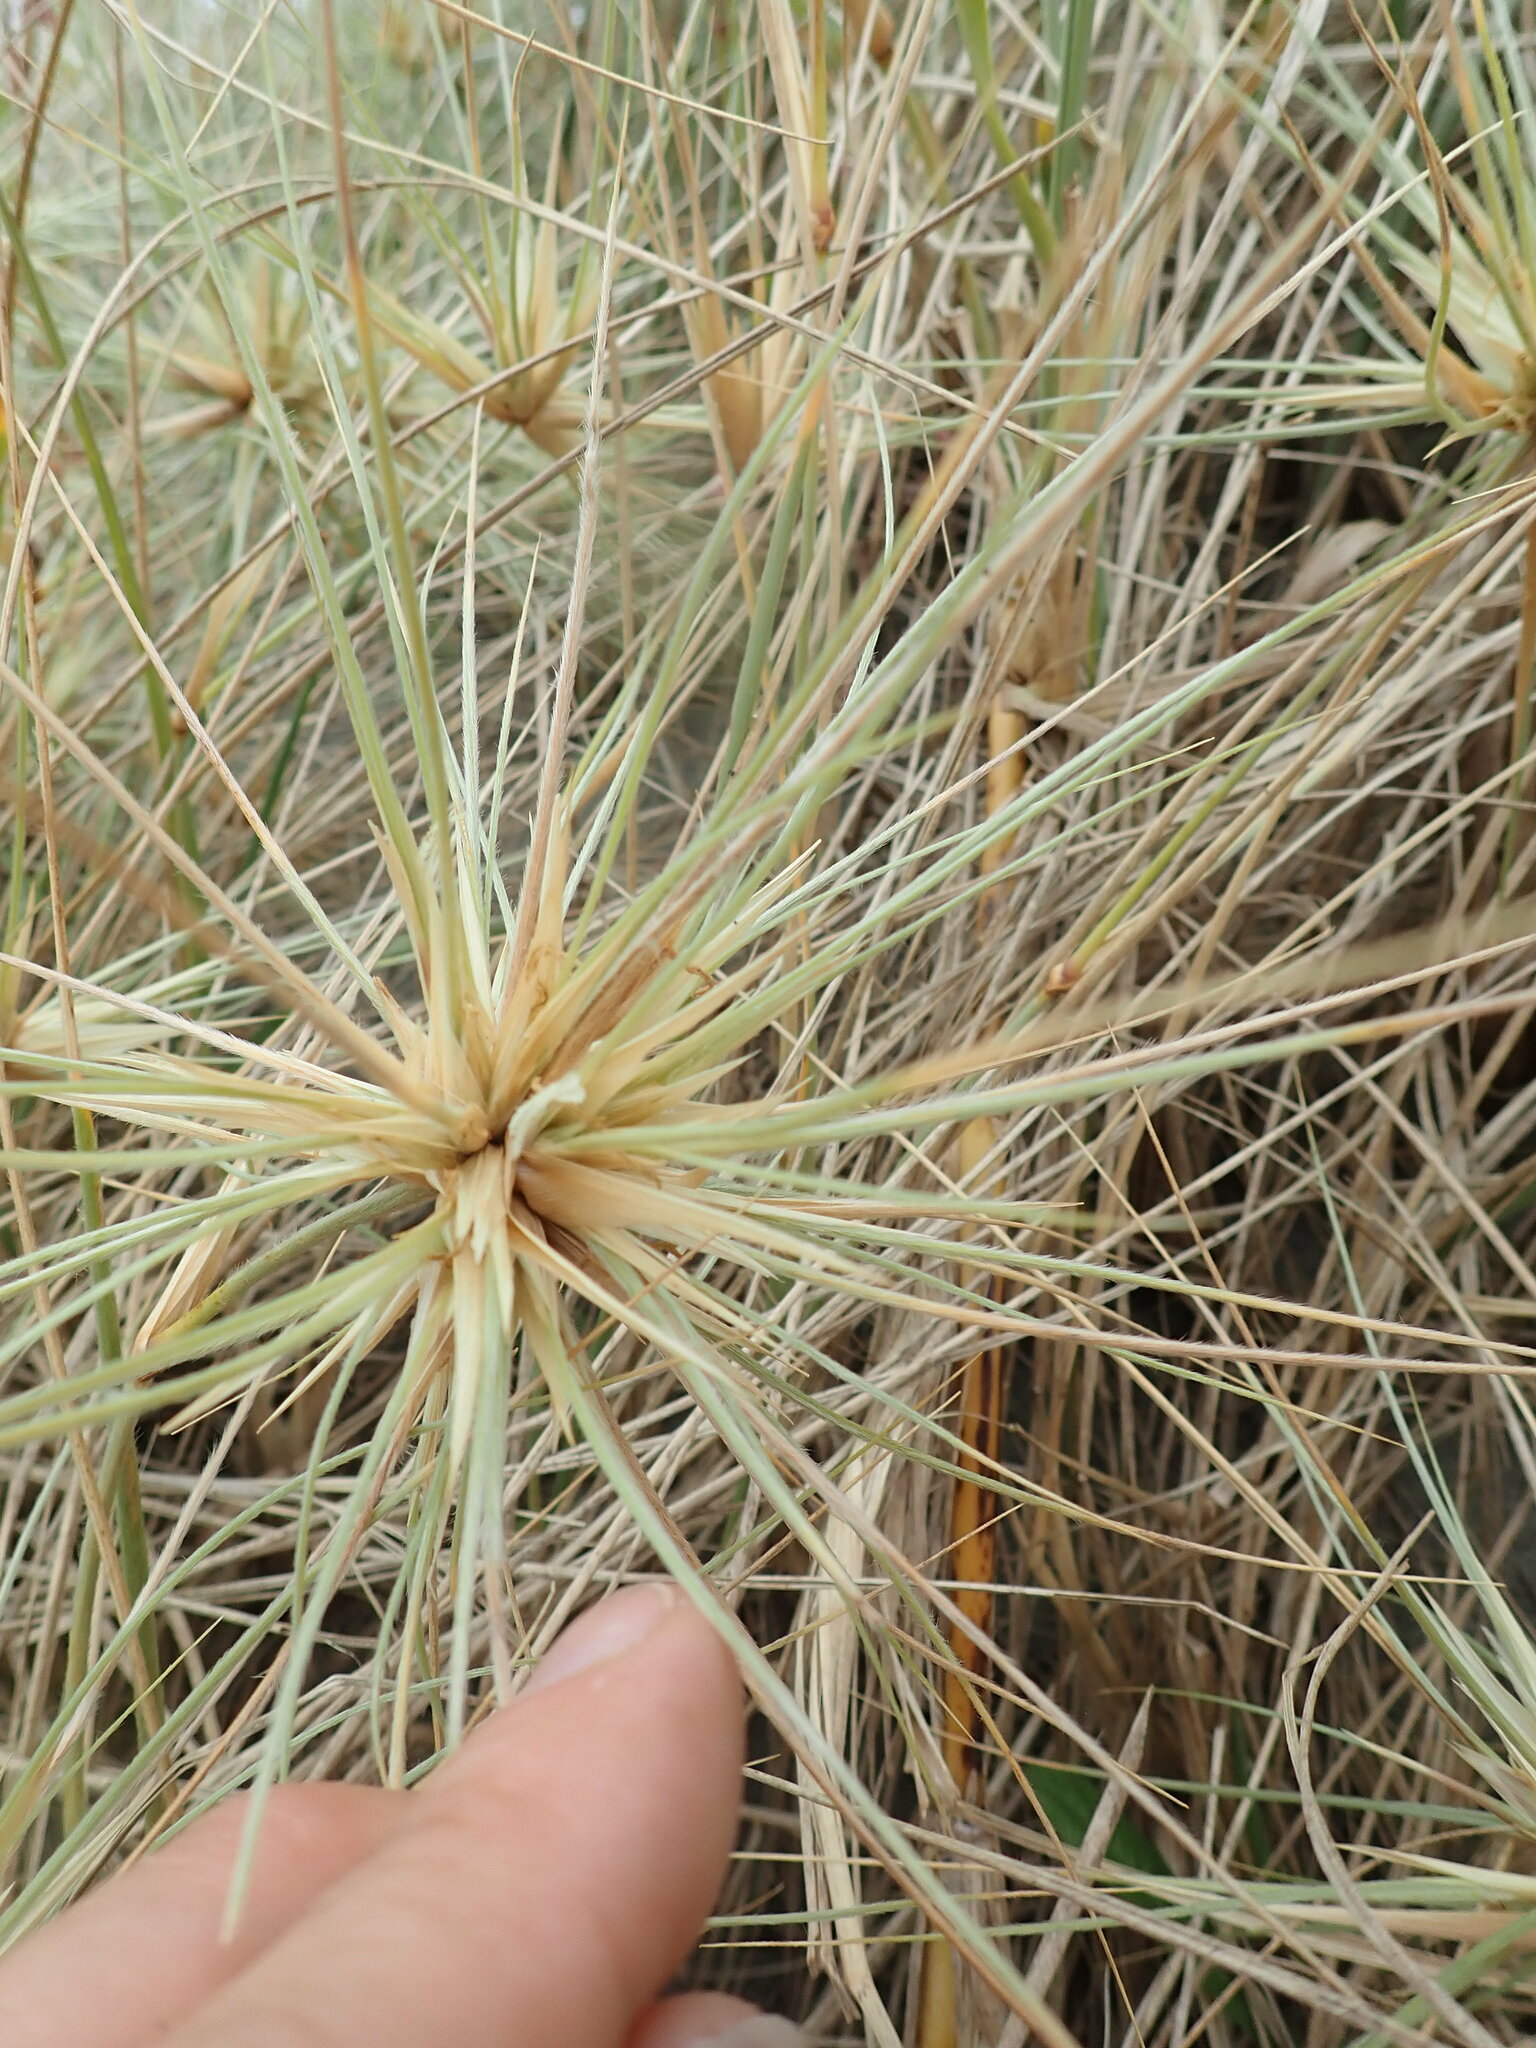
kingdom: Plantae
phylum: Tracheophyta
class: Liliopsida
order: Poales
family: Poaceae
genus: Spinifex
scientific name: Spinifex sericeus
